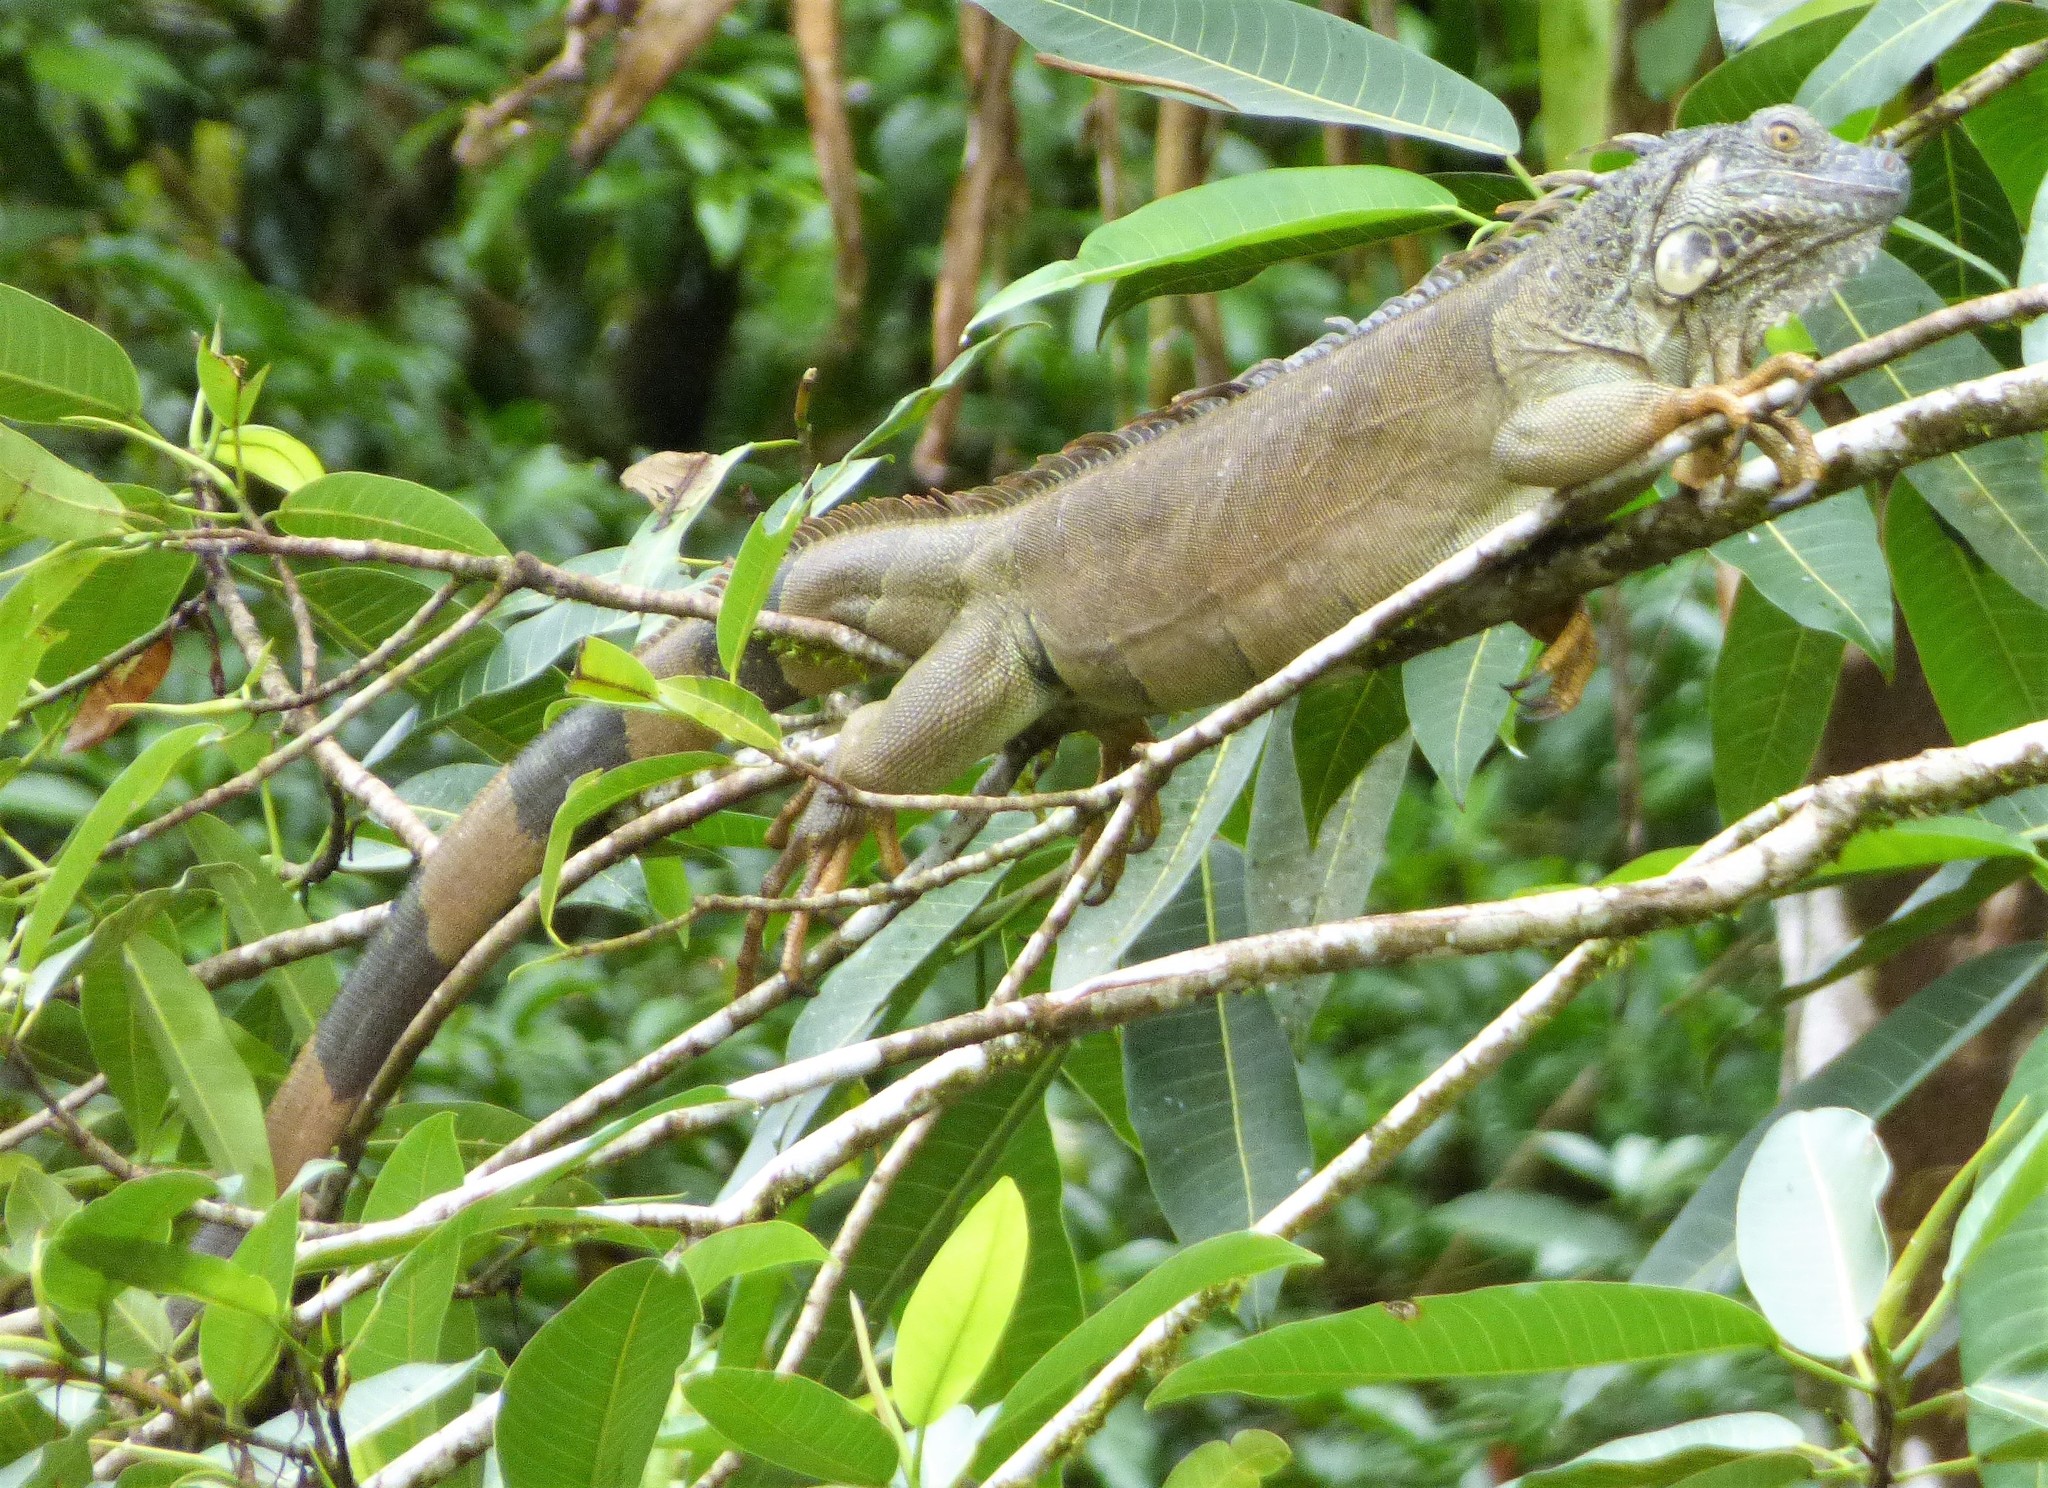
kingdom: Animalia
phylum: Chordata
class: Squamata
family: Iguanidae
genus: Iguana
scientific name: Iguana iguana
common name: Green iguana
